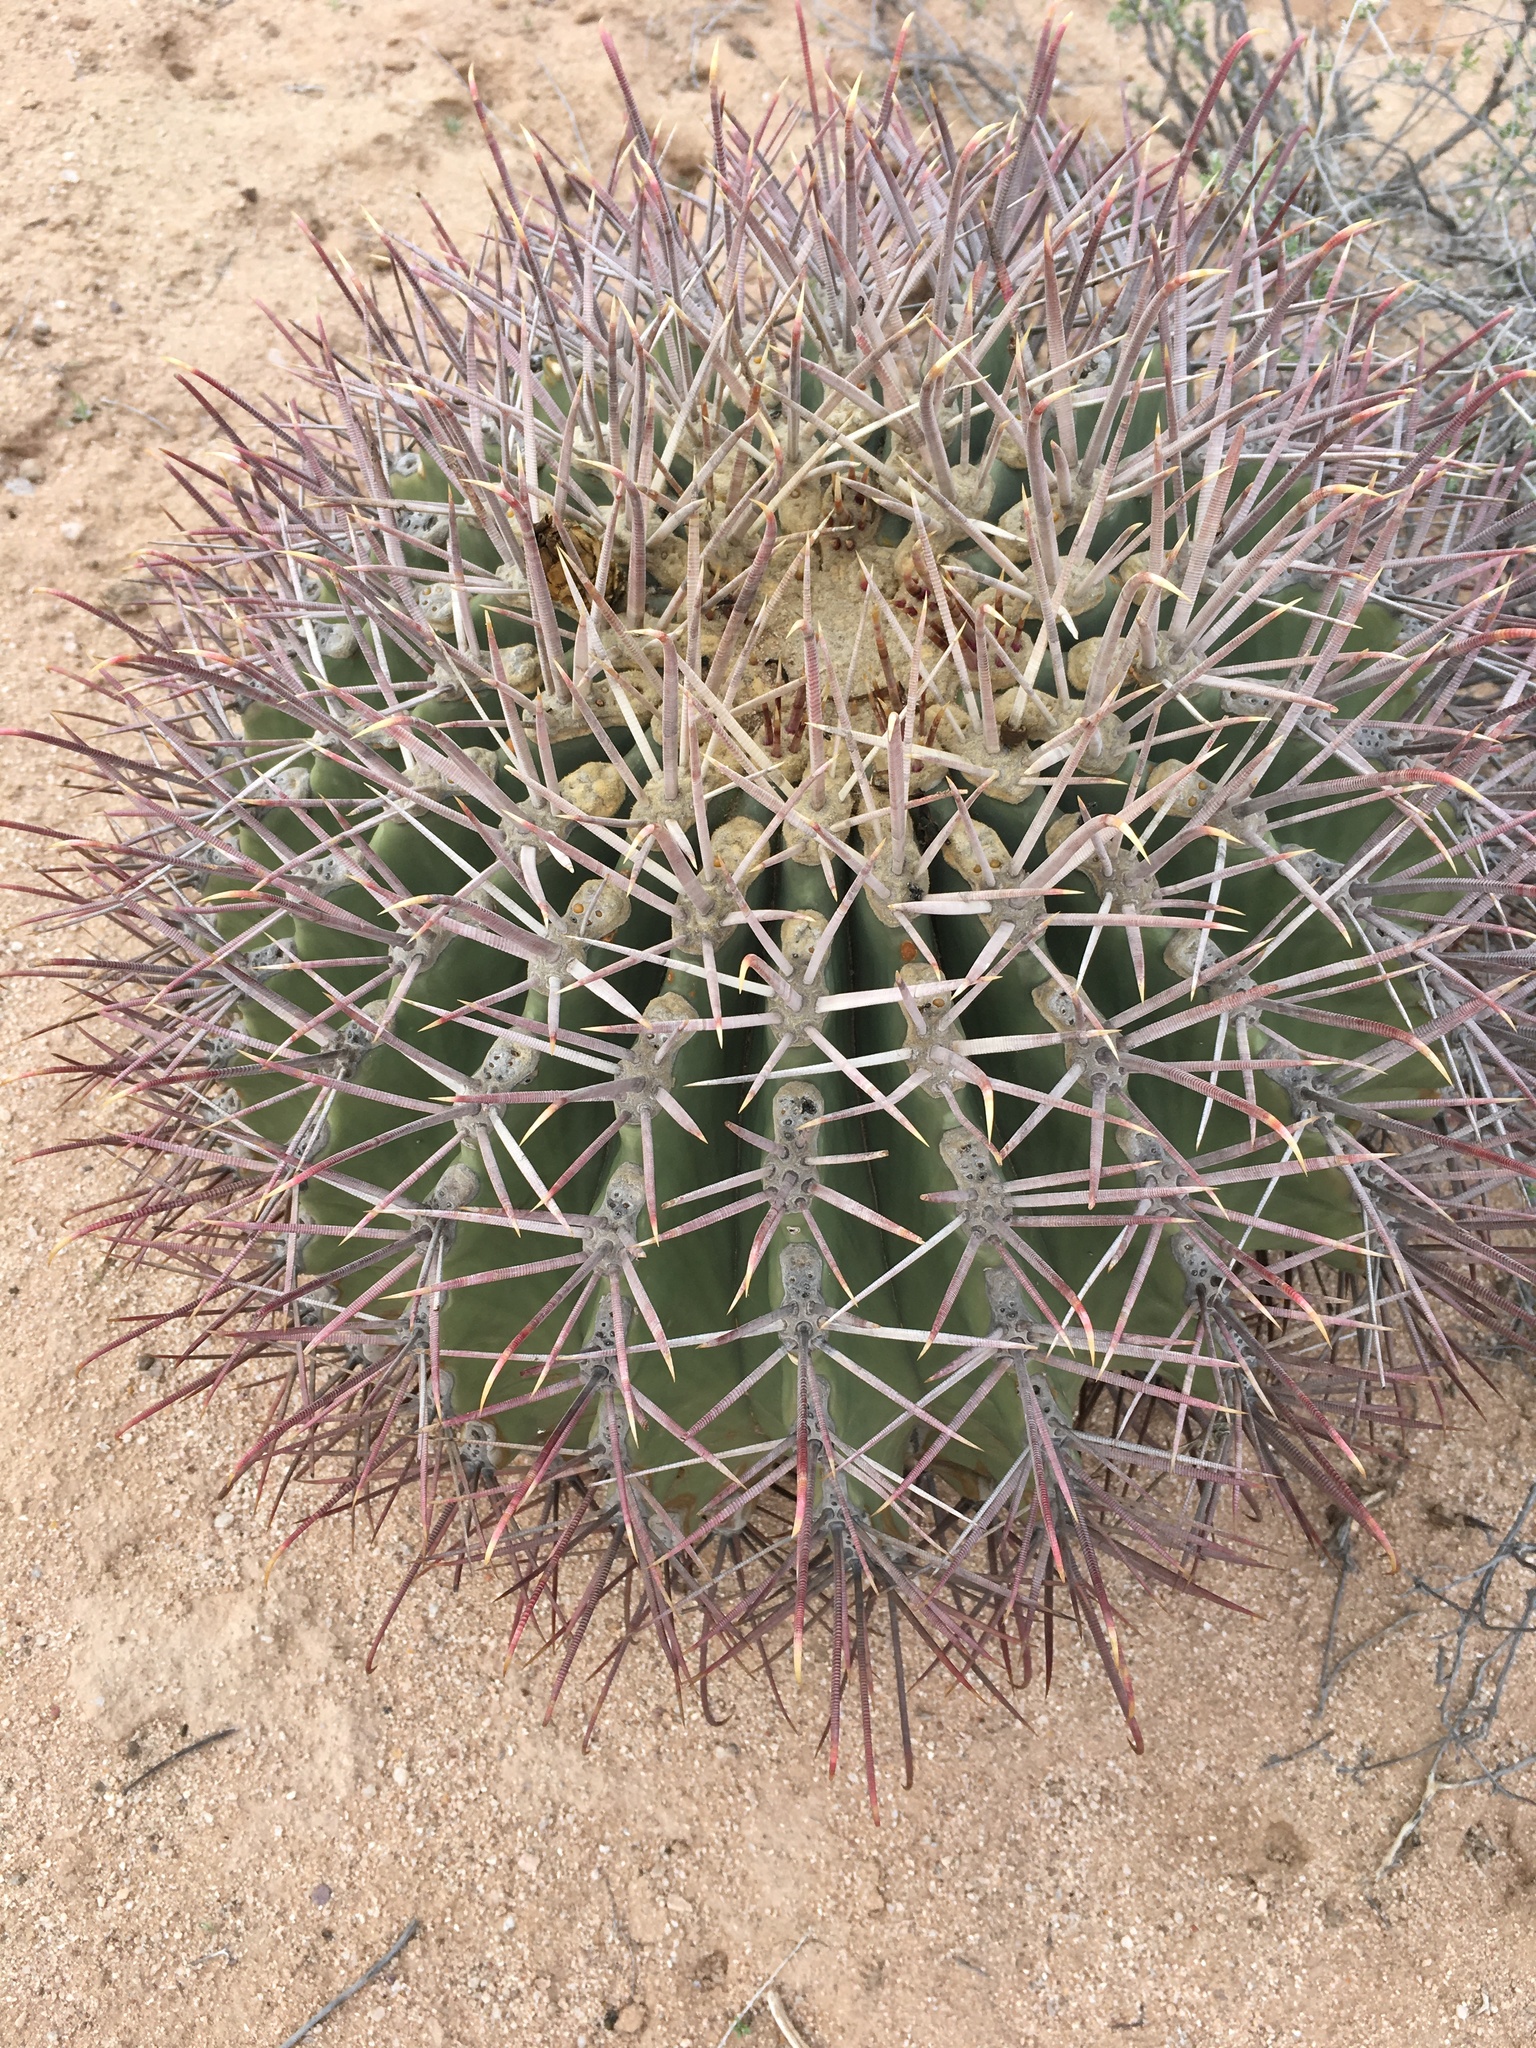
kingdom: Plantae
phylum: Tracheophyta
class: Magnoliopsida
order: Caryophyllales
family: Cactaceae
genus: Ferocactus
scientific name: Ferocactus emoryi
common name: Emory's barrel cactus
